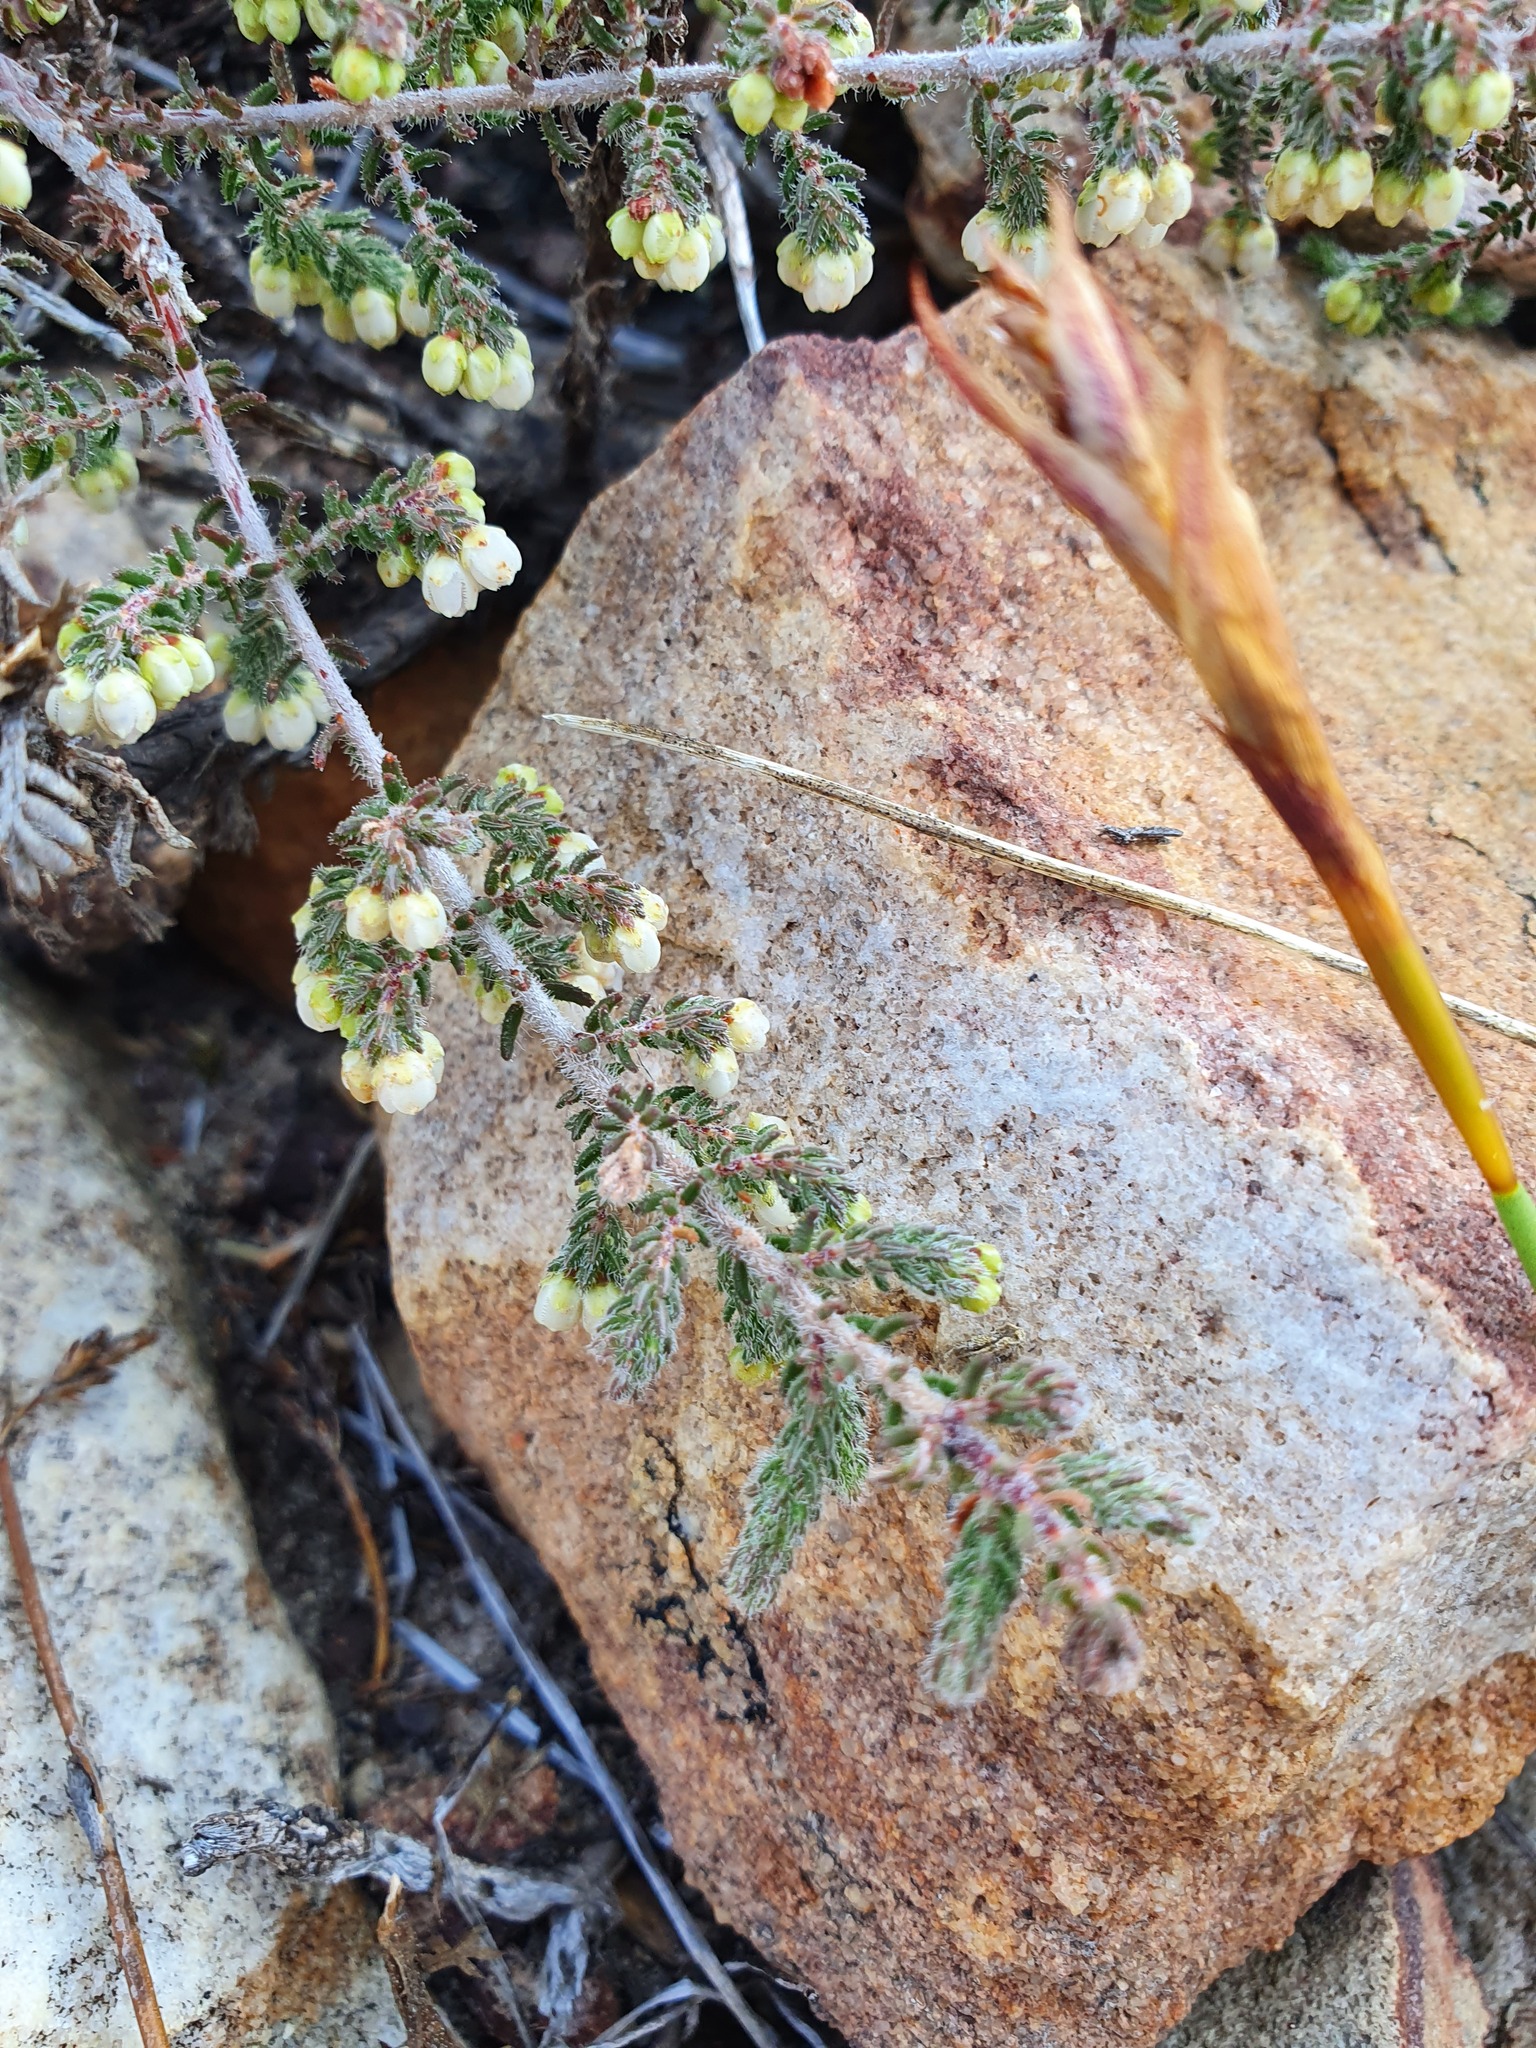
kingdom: Plantae
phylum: Tracheophyta
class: Magnoliopsida
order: Ericales
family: Ericaceae
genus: Erica
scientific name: Erica totta
